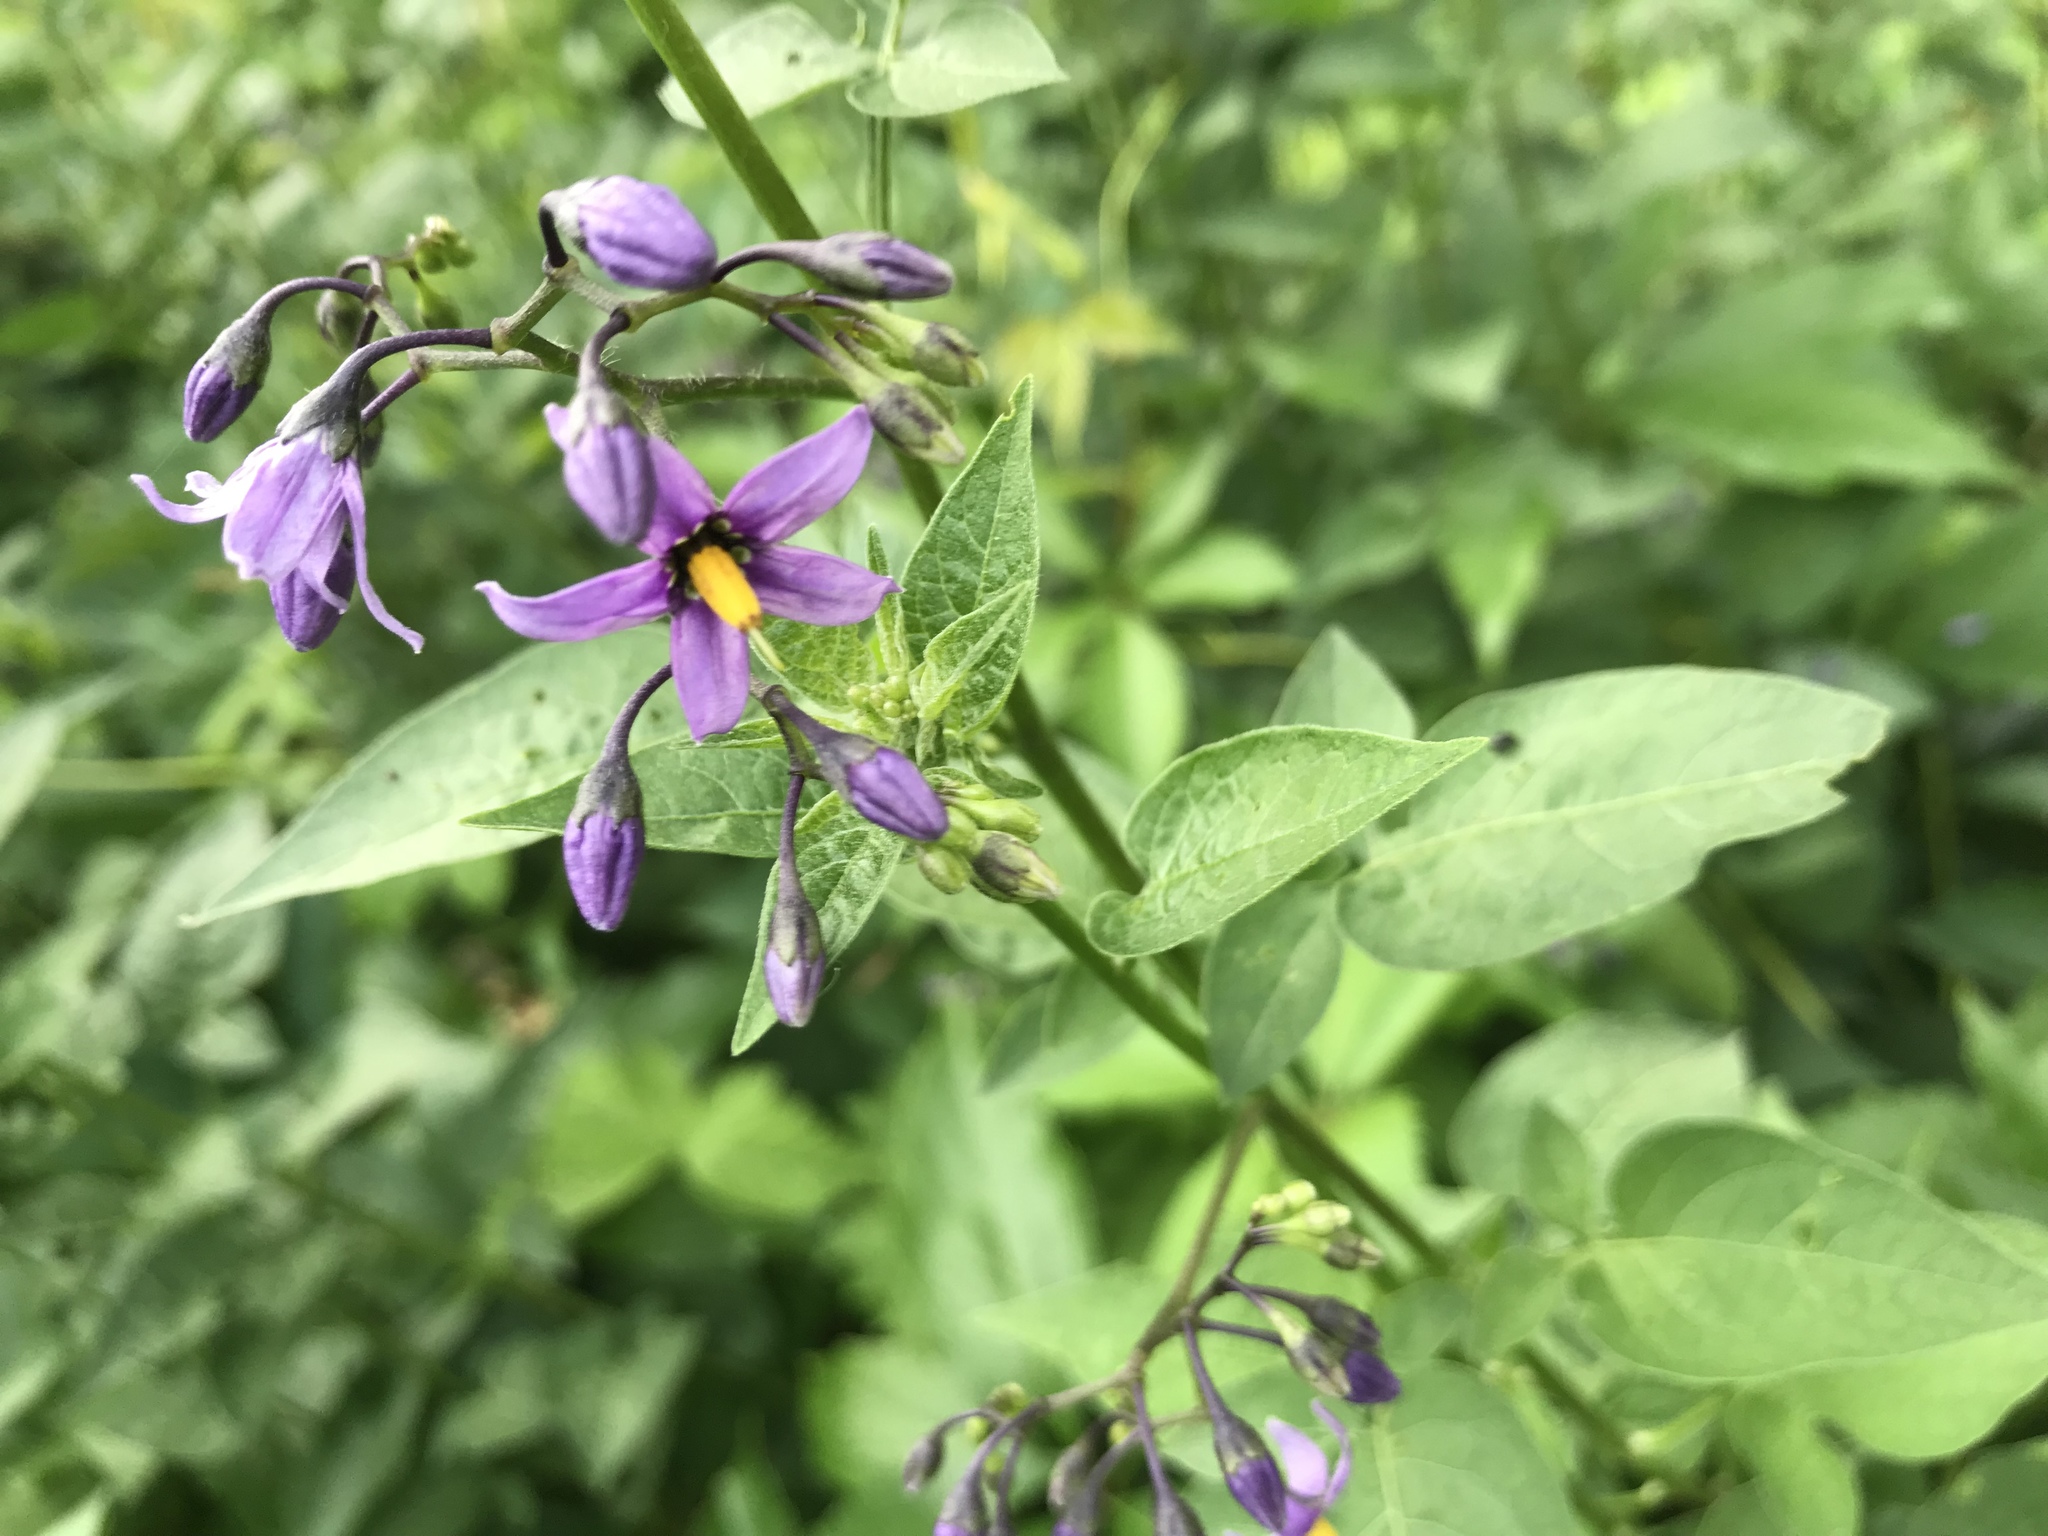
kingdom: Plantae
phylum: Tracheophyta
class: Magnoliopsida
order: Solanales
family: Solanaceae
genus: Solanum
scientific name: Solanum dulcamara
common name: Climbing nightshade
